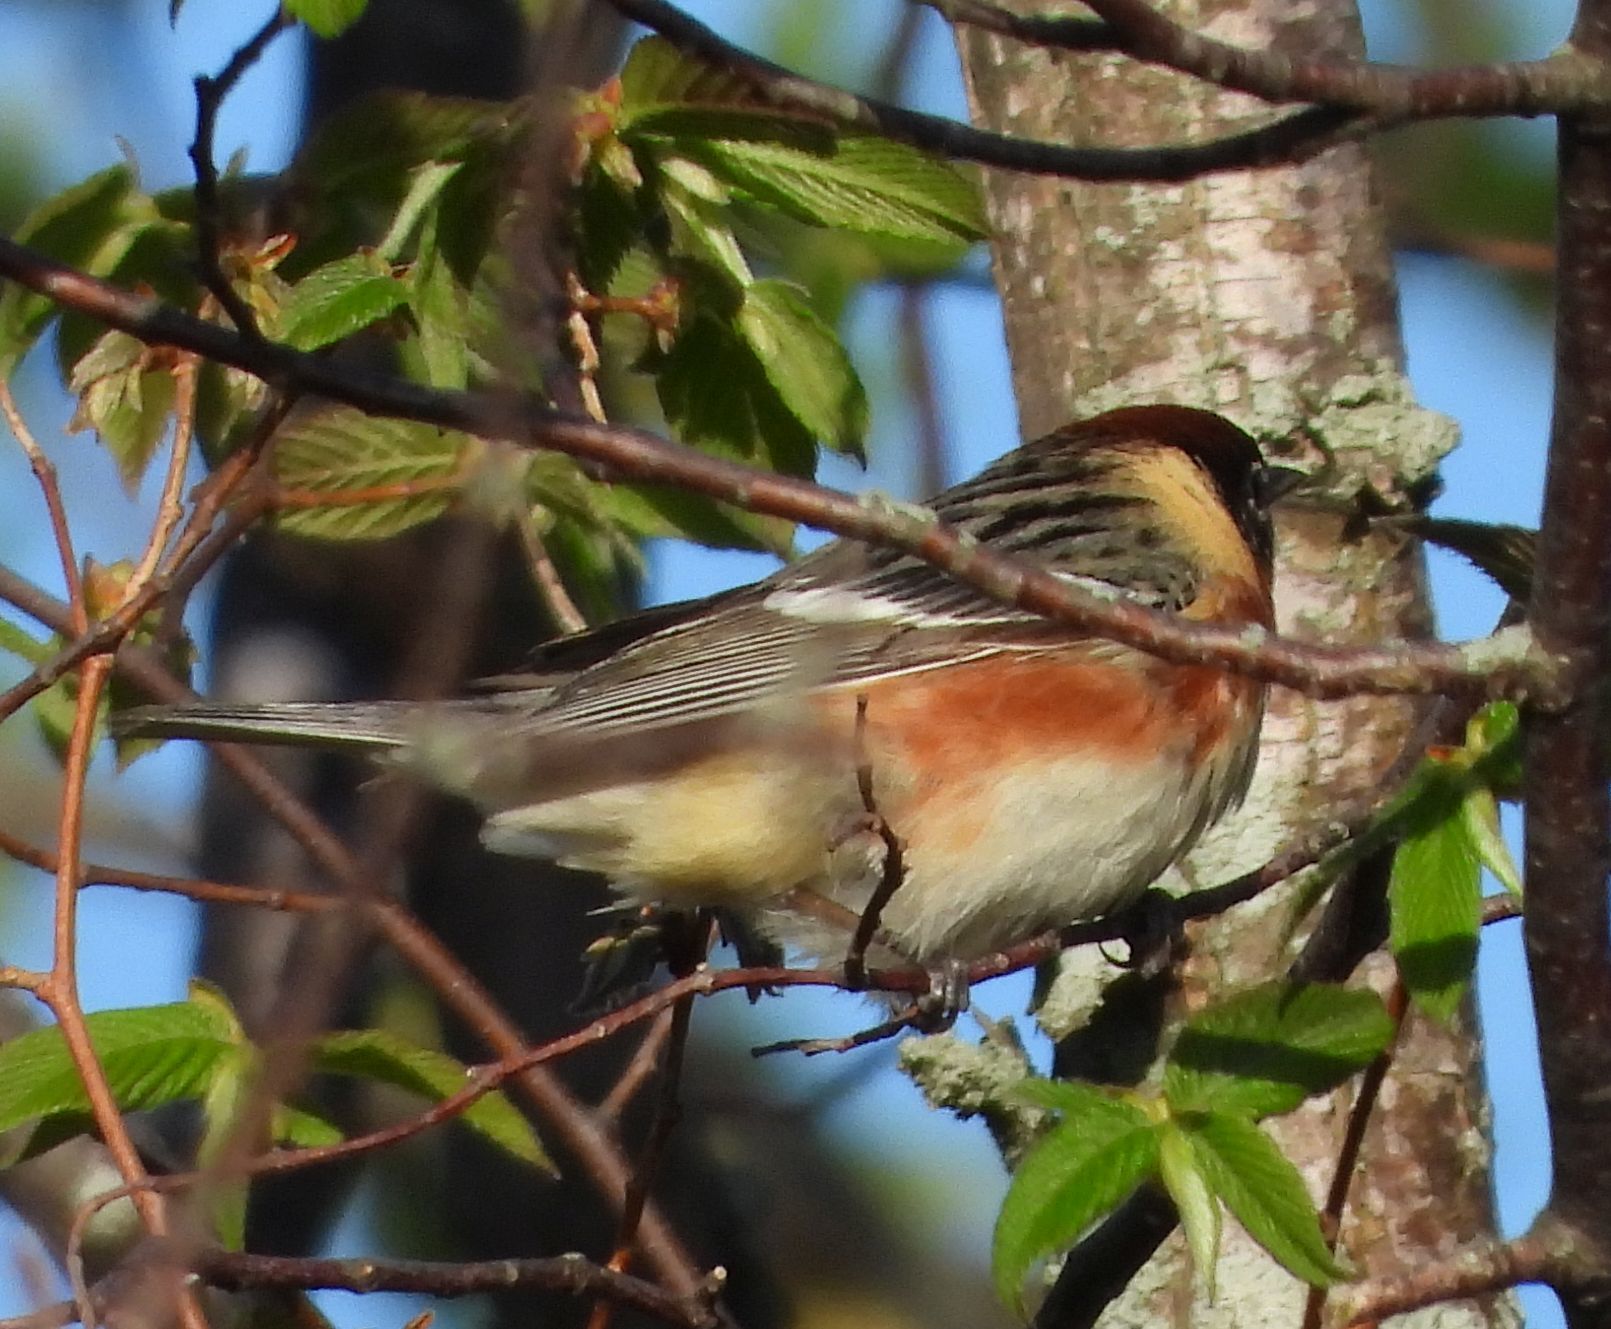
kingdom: Animalia
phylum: Chordata
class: Aves
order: Passeriformes
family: Parulidae
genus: Setophaga
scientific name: Setophaga castanea
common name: Bay-breasted warbler
